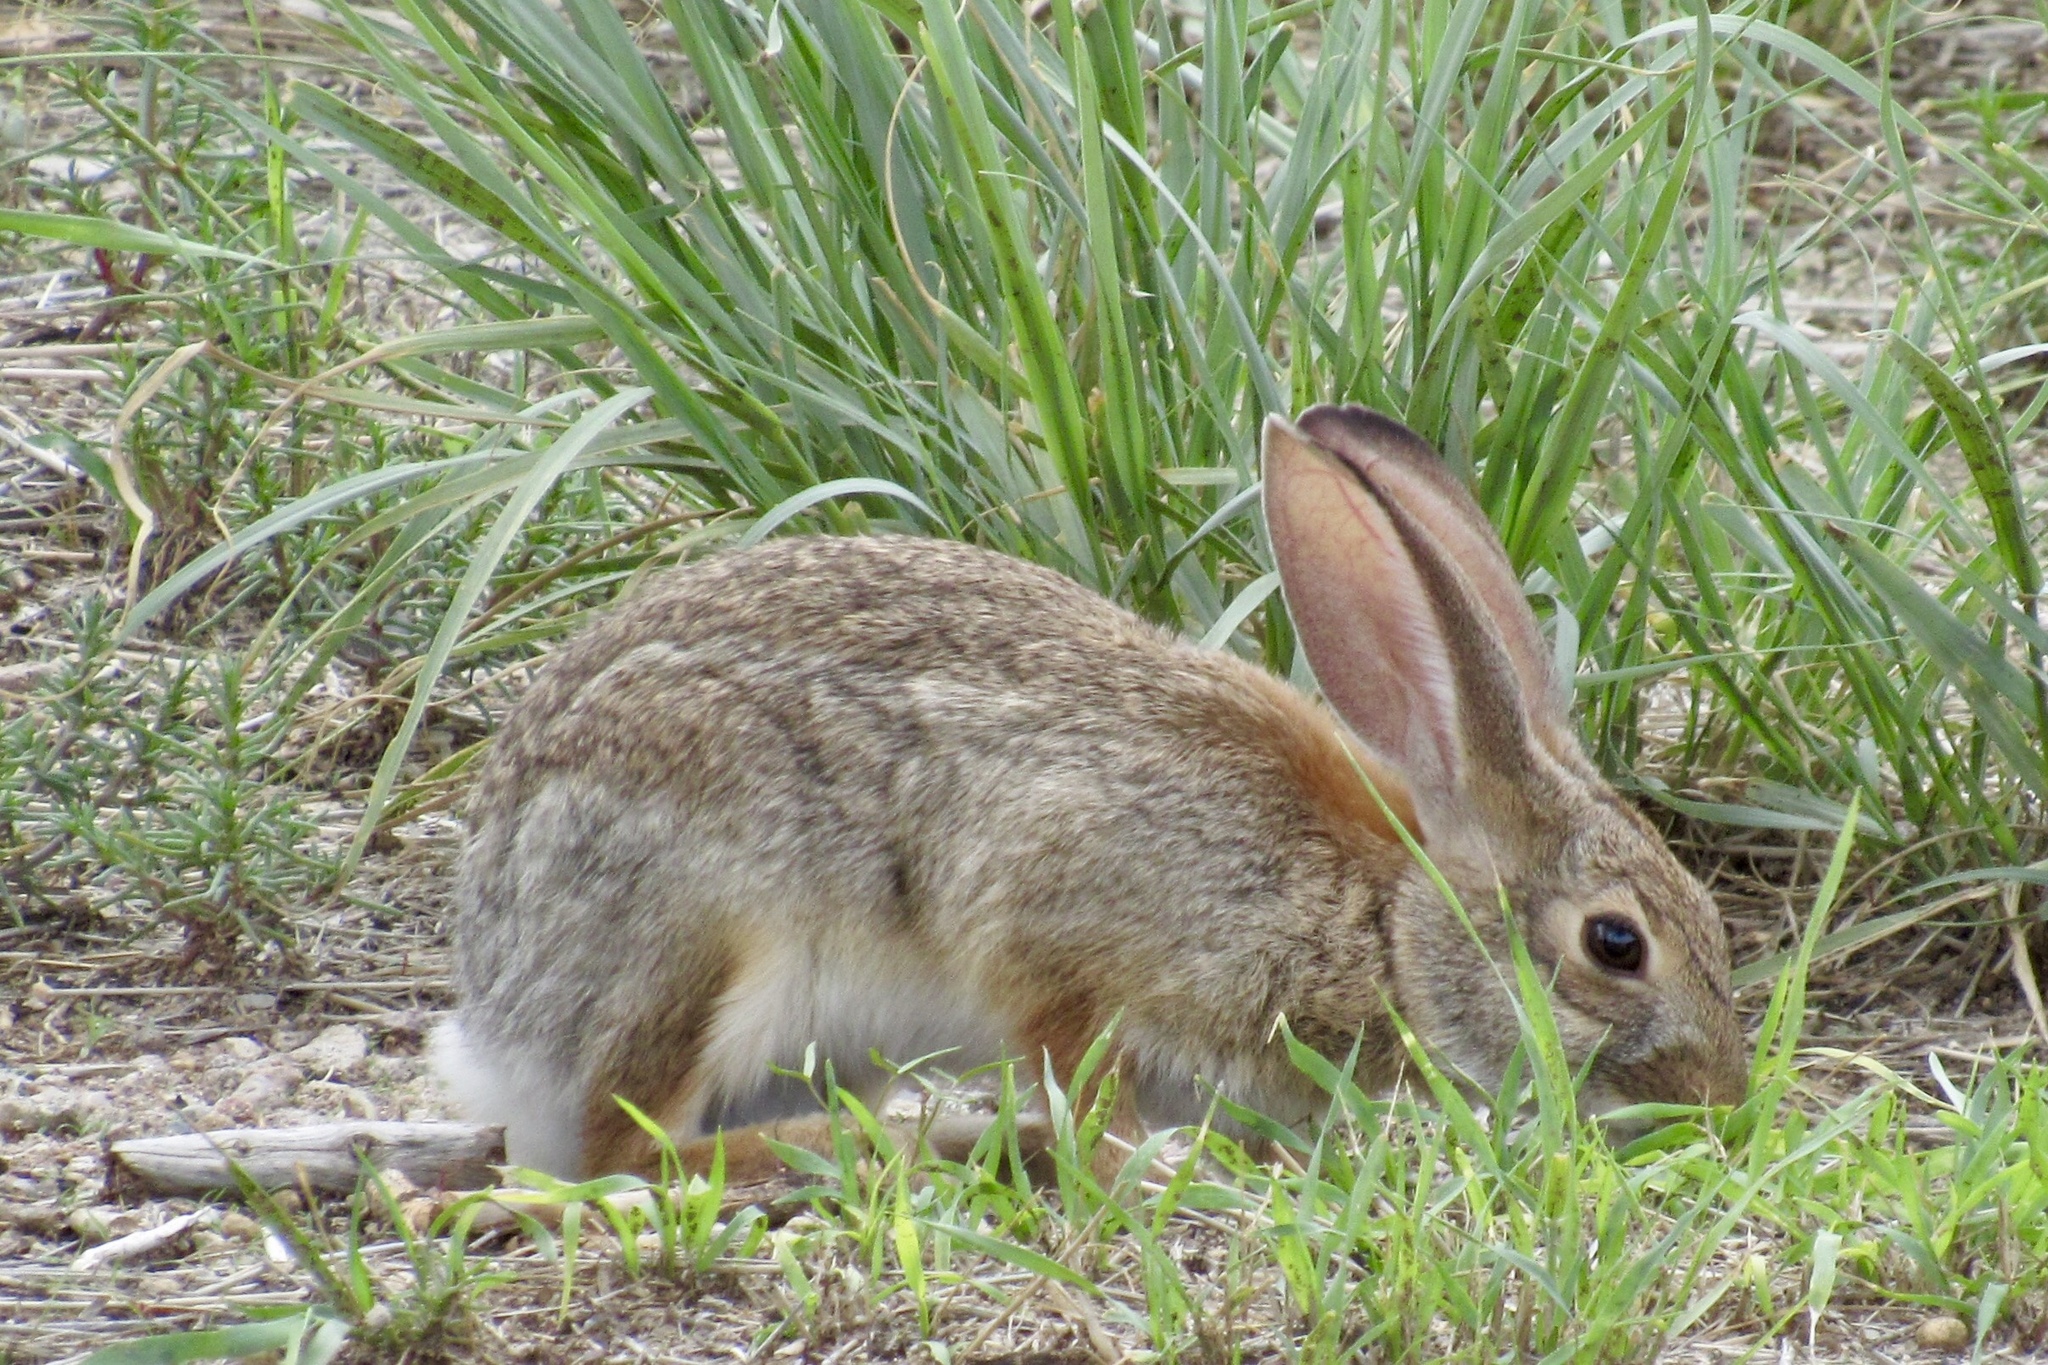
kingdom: Animalia
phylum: Chordata
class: Mammalia
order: Lagomorpha
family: Leporidae
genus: Sylvilagus
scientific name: Sylvilagus audubonii
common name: Desert cottontail
